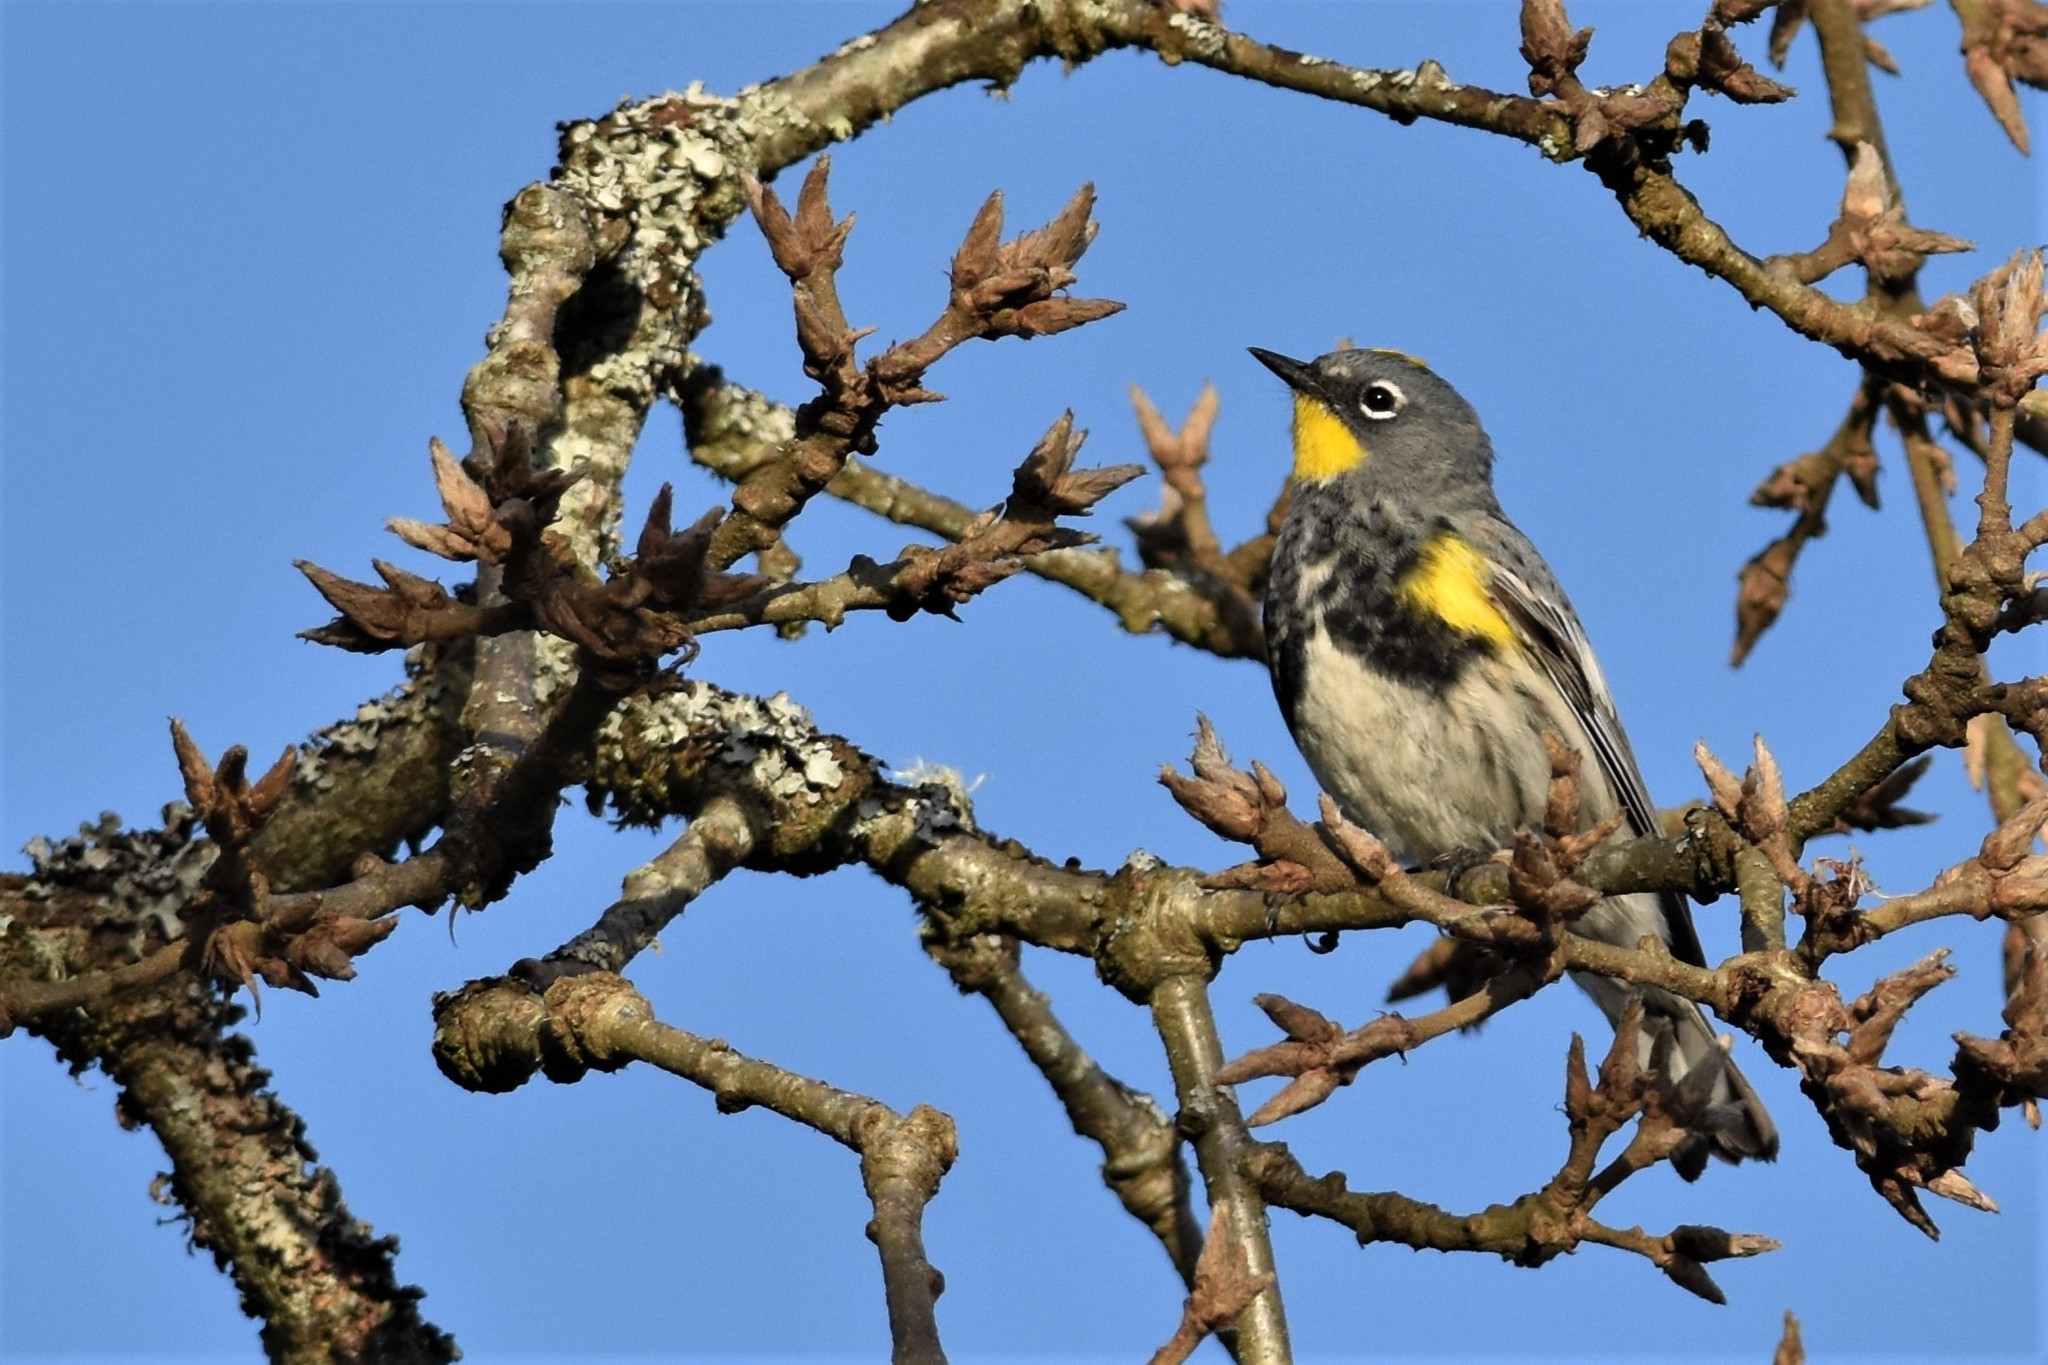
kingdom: Animalia
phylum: Chordata
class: Aves
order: Passeriformes
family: Parulidae
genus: Setophaga
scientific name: Setophaga auduboni
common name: Audubon's warbler
